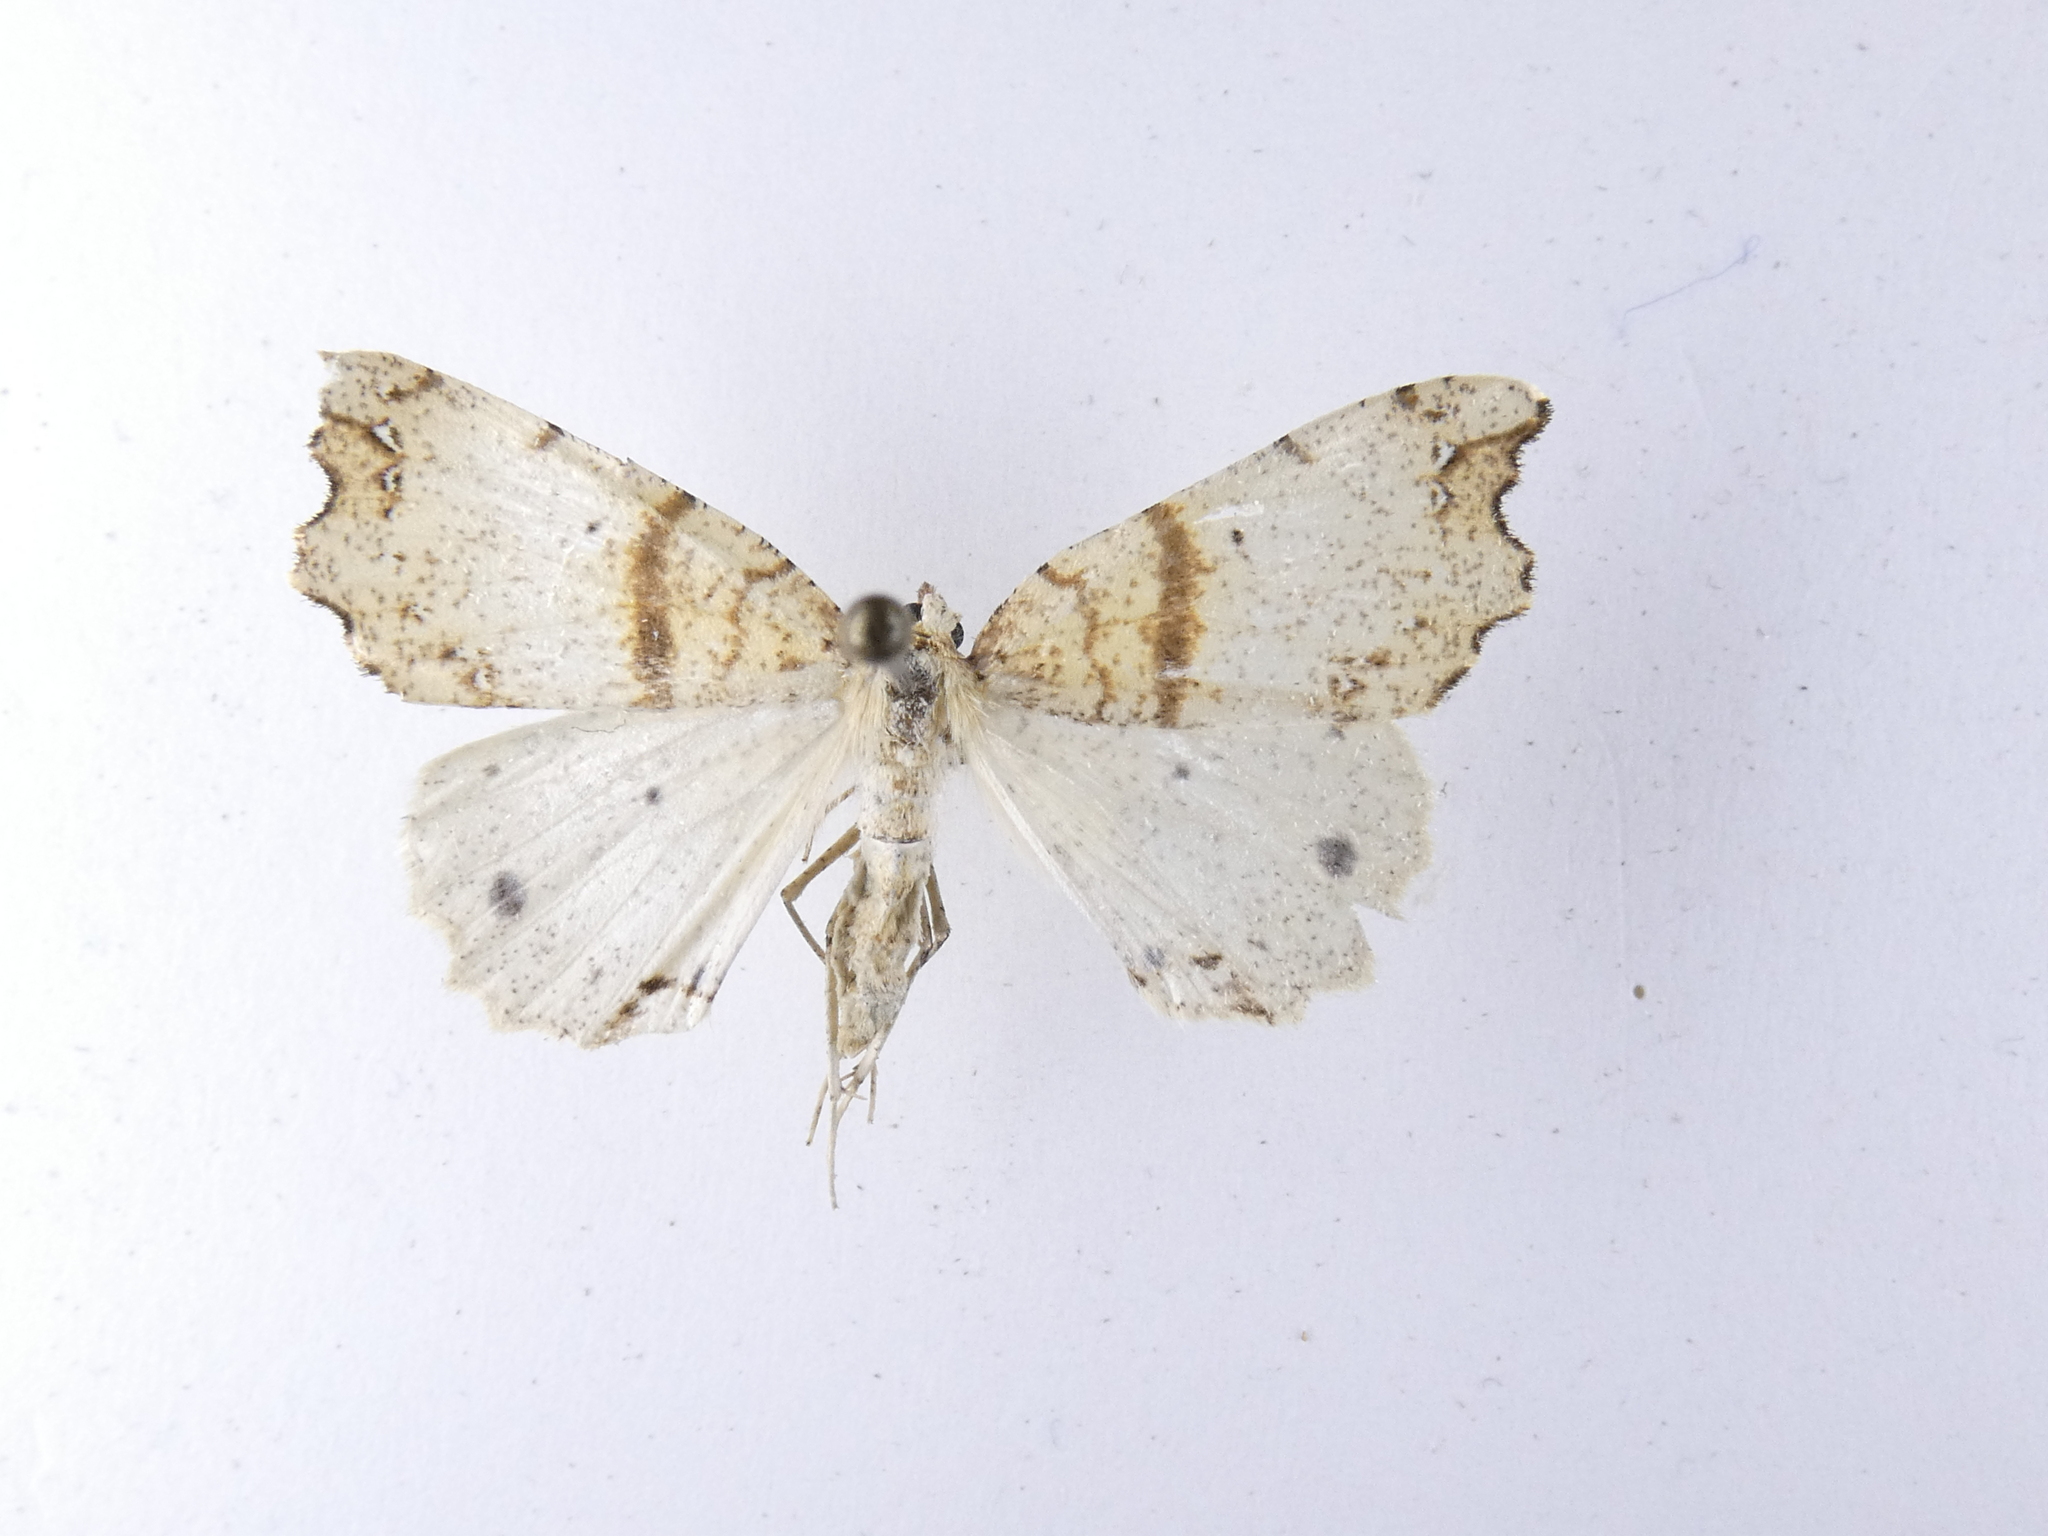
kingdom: Animalia
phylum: Arthropoda
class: Insecta
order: Lepidoptera
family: Geometridae
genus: Chalastra
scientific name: Chalastra pellurgata
